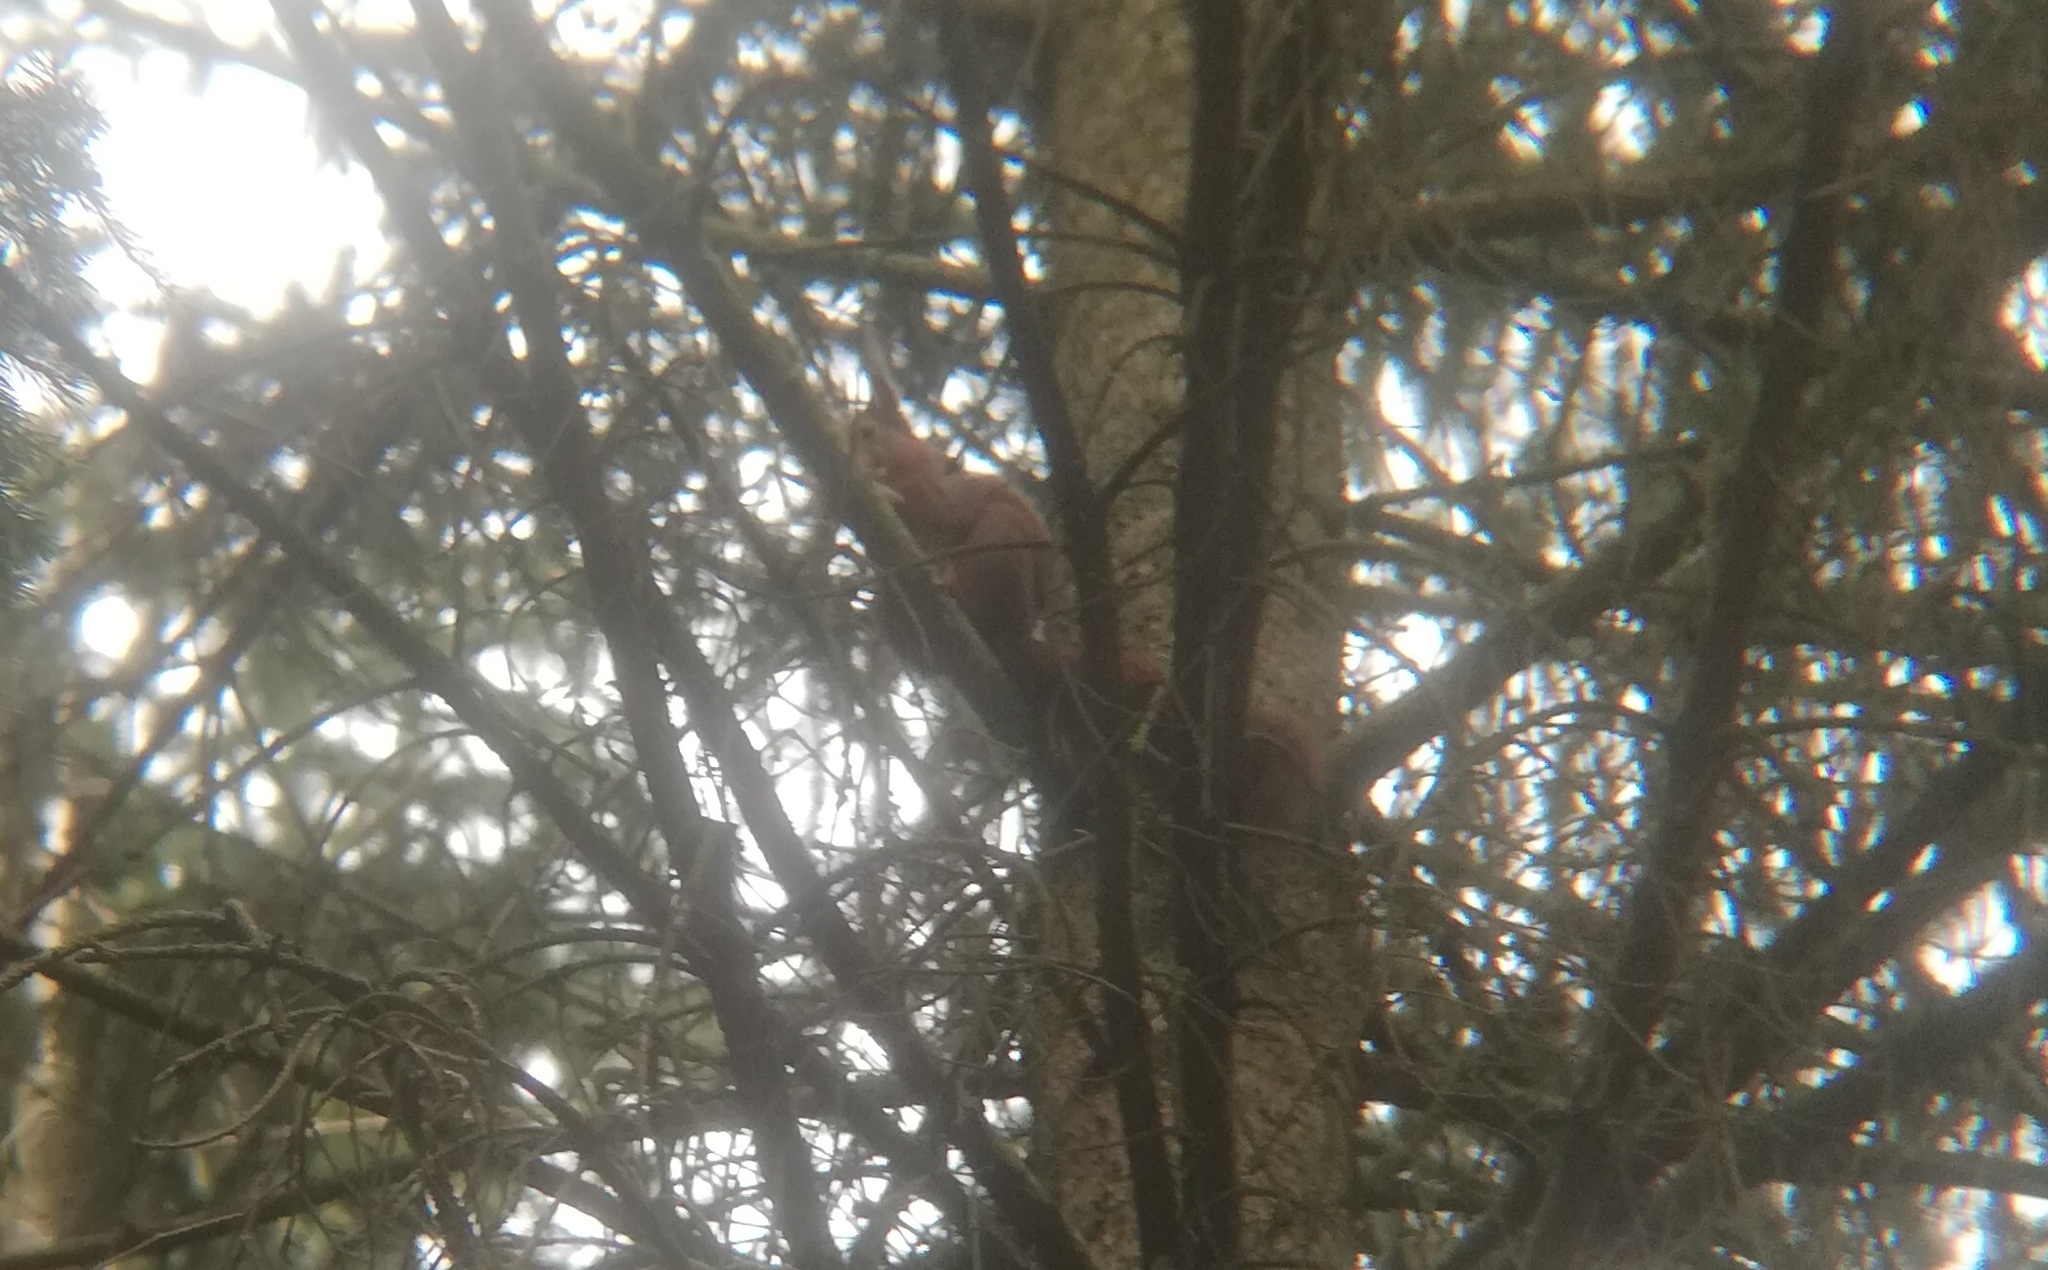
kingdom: Animalia
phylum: Chordata
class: Mammalia
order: Rodentia
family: Sciuridae
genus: Sciurus
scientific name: Sciurus vulgaris
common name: Eurasian red squirrel
